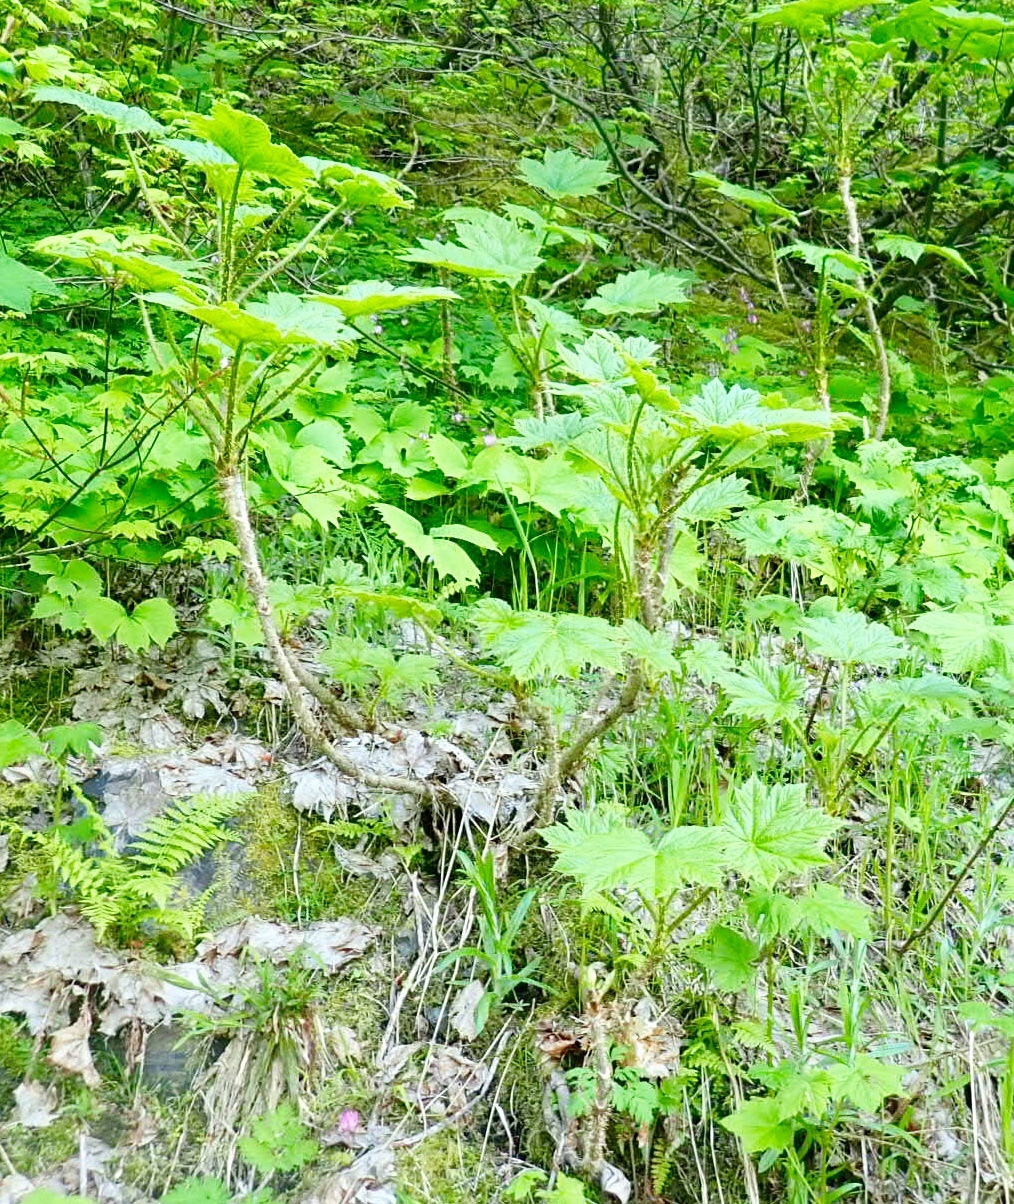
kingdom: Plantae
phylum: Tracheophyta
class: Magnoliopsida
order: Apiales
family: Araliaceae
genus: Oplopanax
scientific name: Oplopanax horridus
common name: Devil's walking-stick
